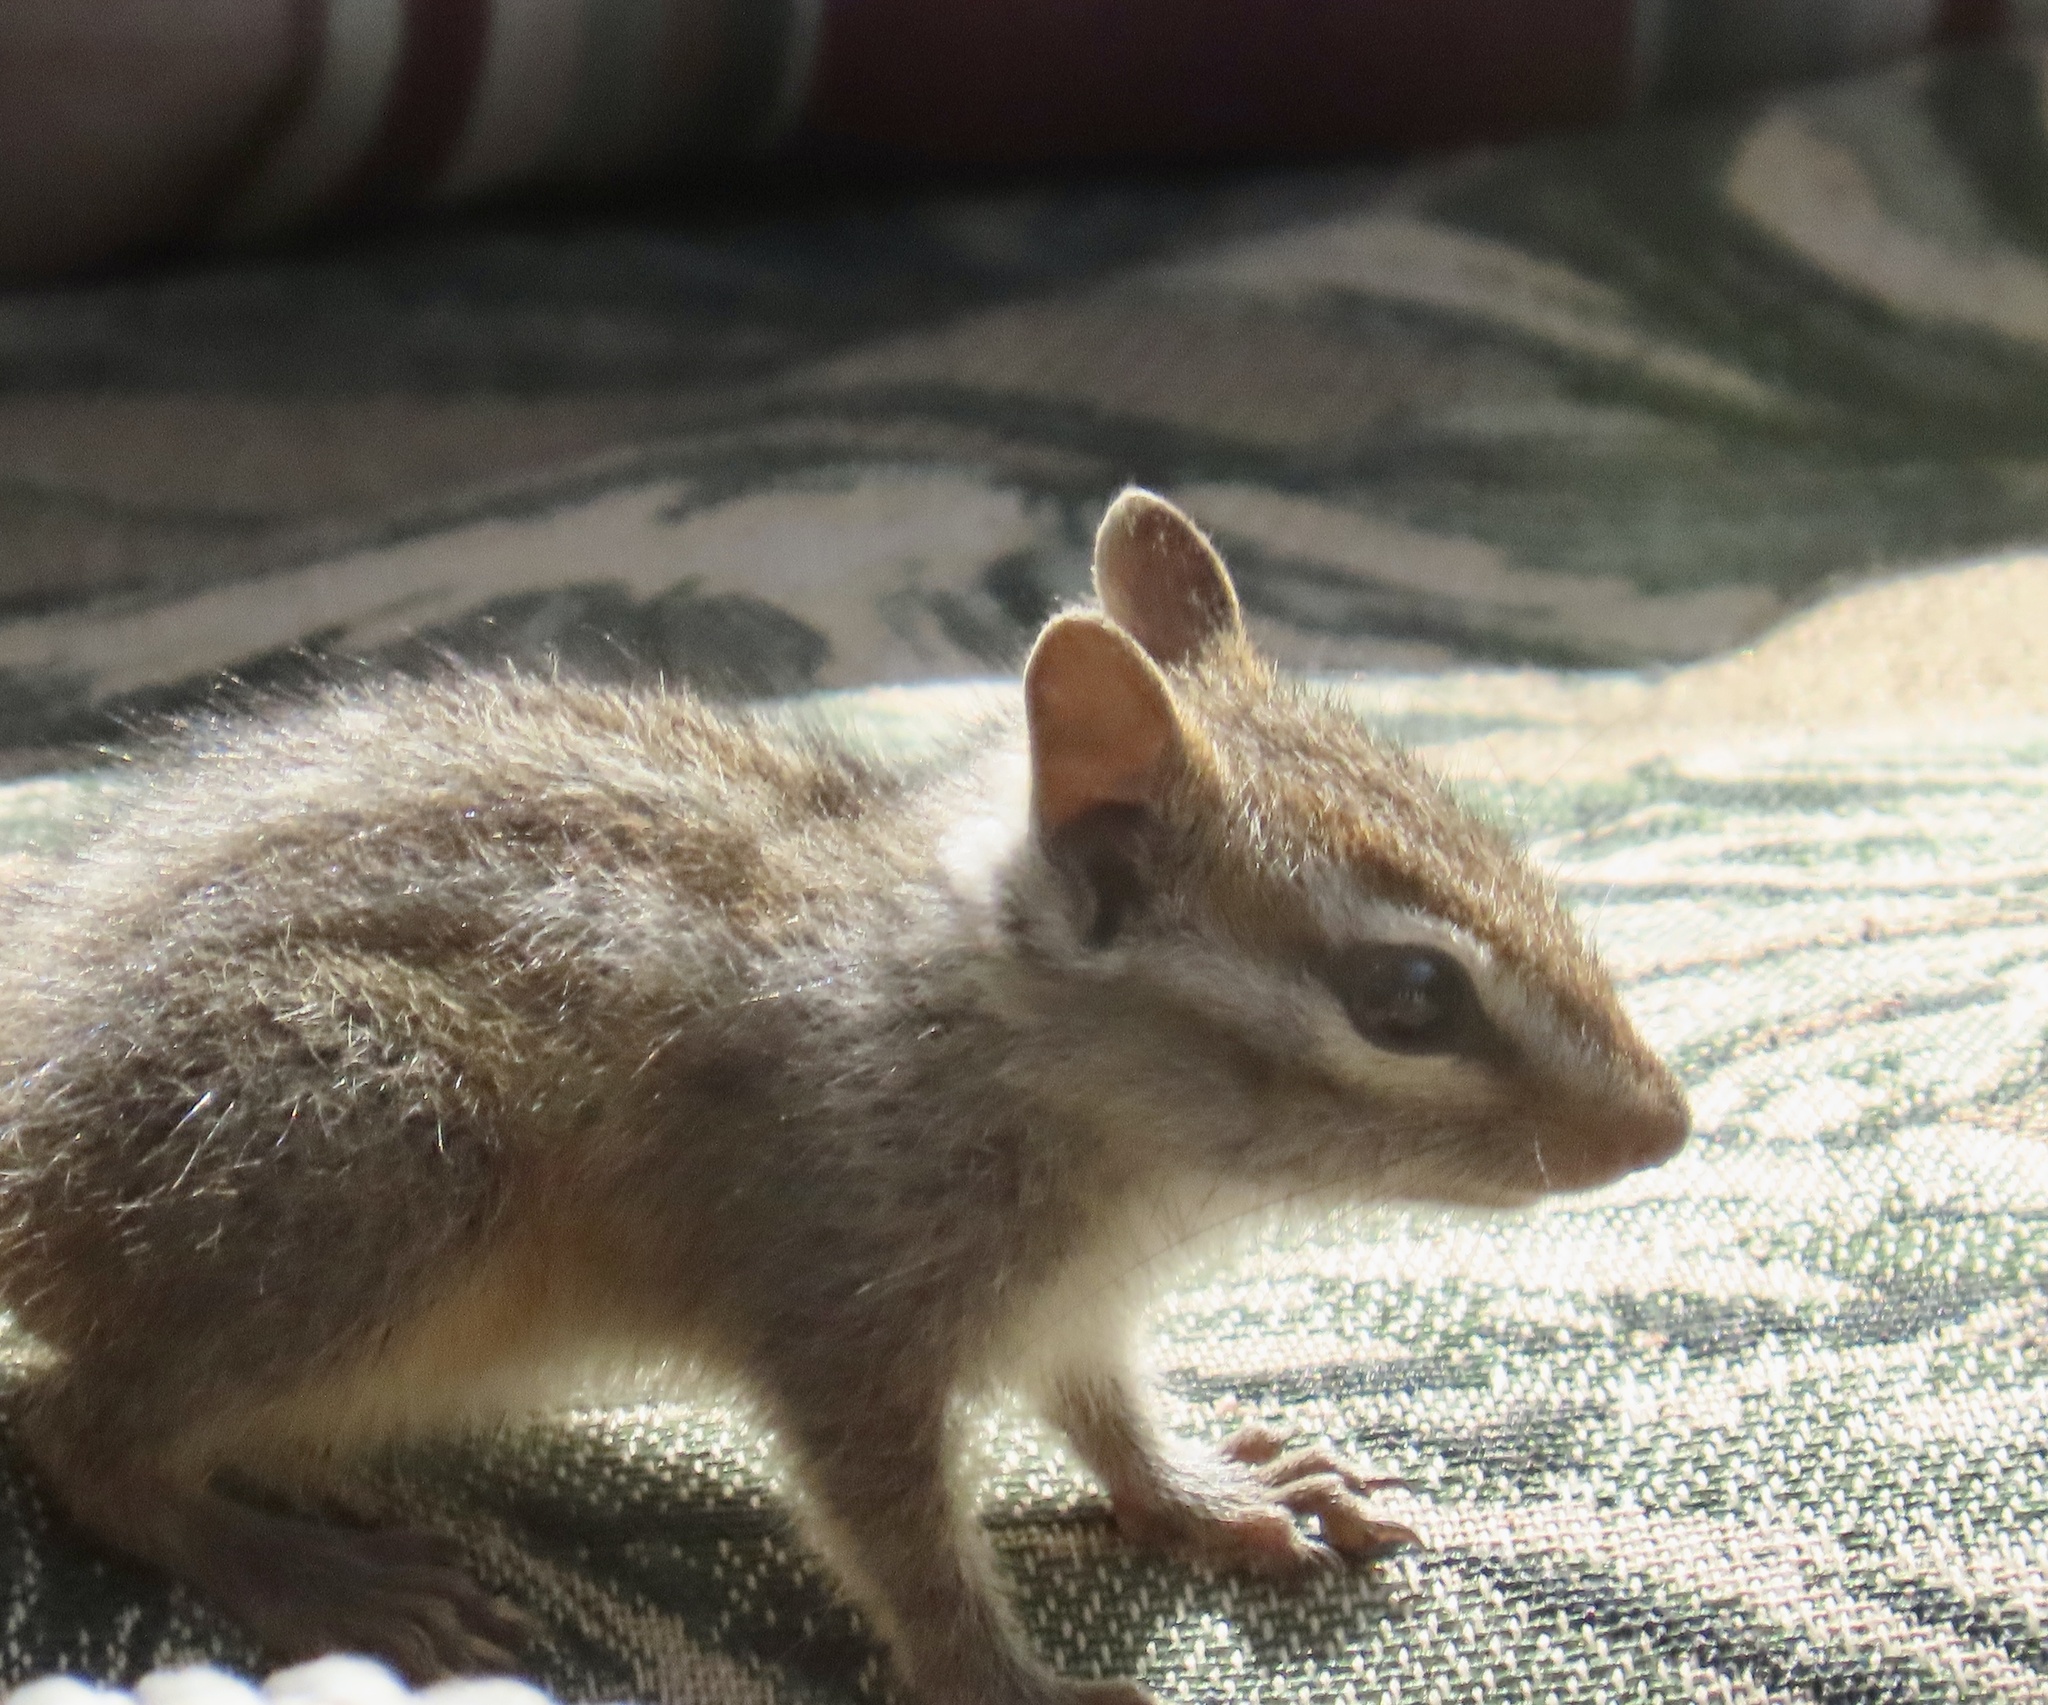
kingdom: Animalia
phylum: Chordata
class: Mammalia
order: Rodentia
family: Sciuridae
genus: Tamias
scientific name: Tamias merriami
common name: Merriam's chipmunk
